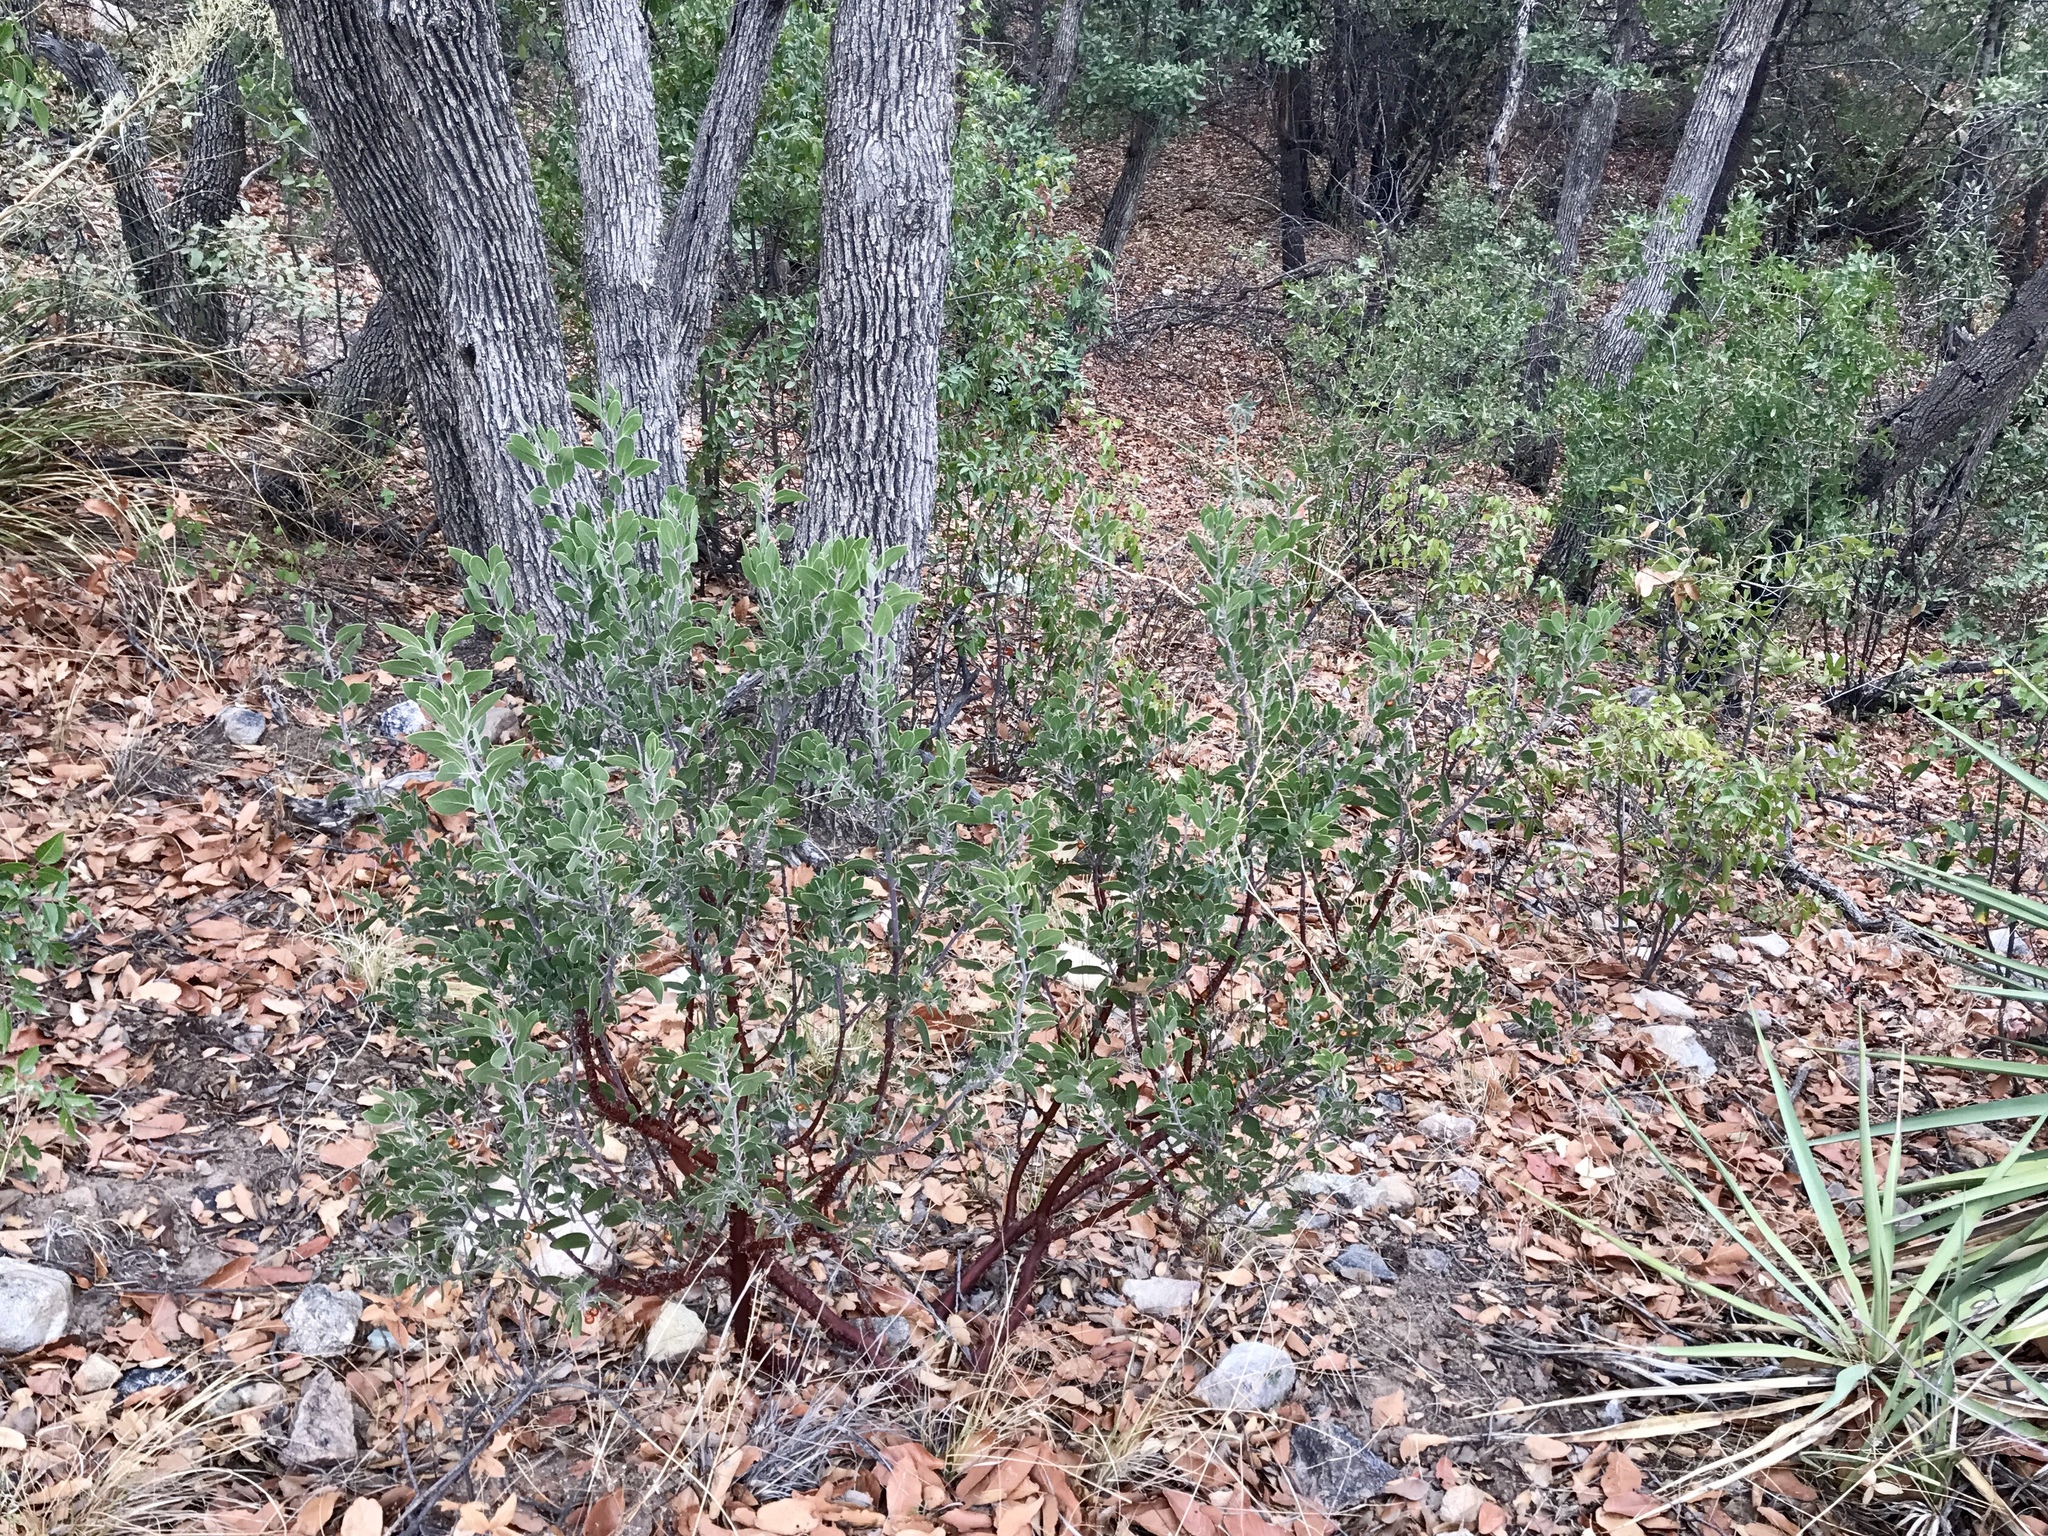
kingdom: Plantae
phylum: Tracheophyta
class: Magnoliopsida
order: Ericales
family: Ericaceae
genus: Arctostaphylos
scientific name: Arctostaphylos pungens
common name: Mexican manzanita
